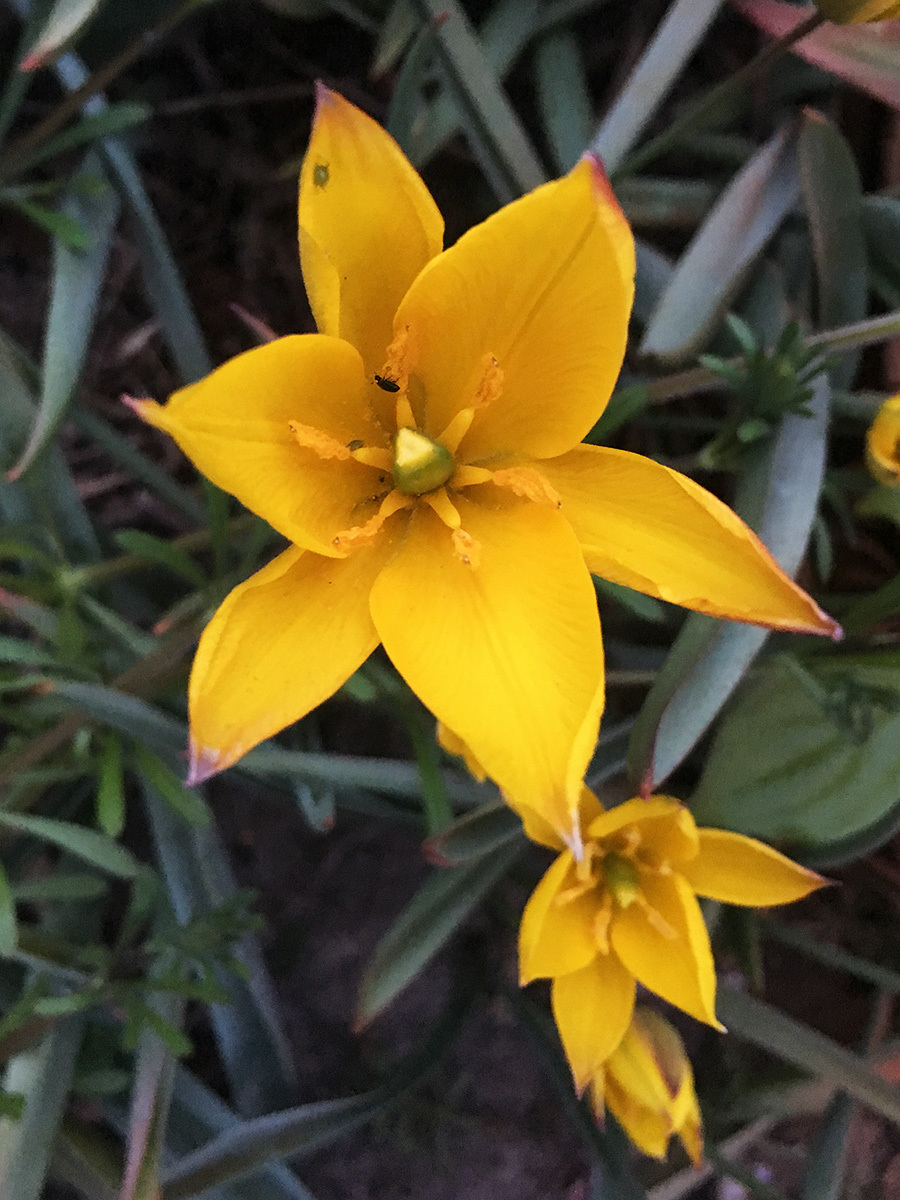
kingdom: Plantae
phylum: Tracheophyta
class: Liliopsida
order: Liliales
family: Liliaceae
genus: Tulipa
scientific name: Tulipa sylvestris
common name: Wild tulip
